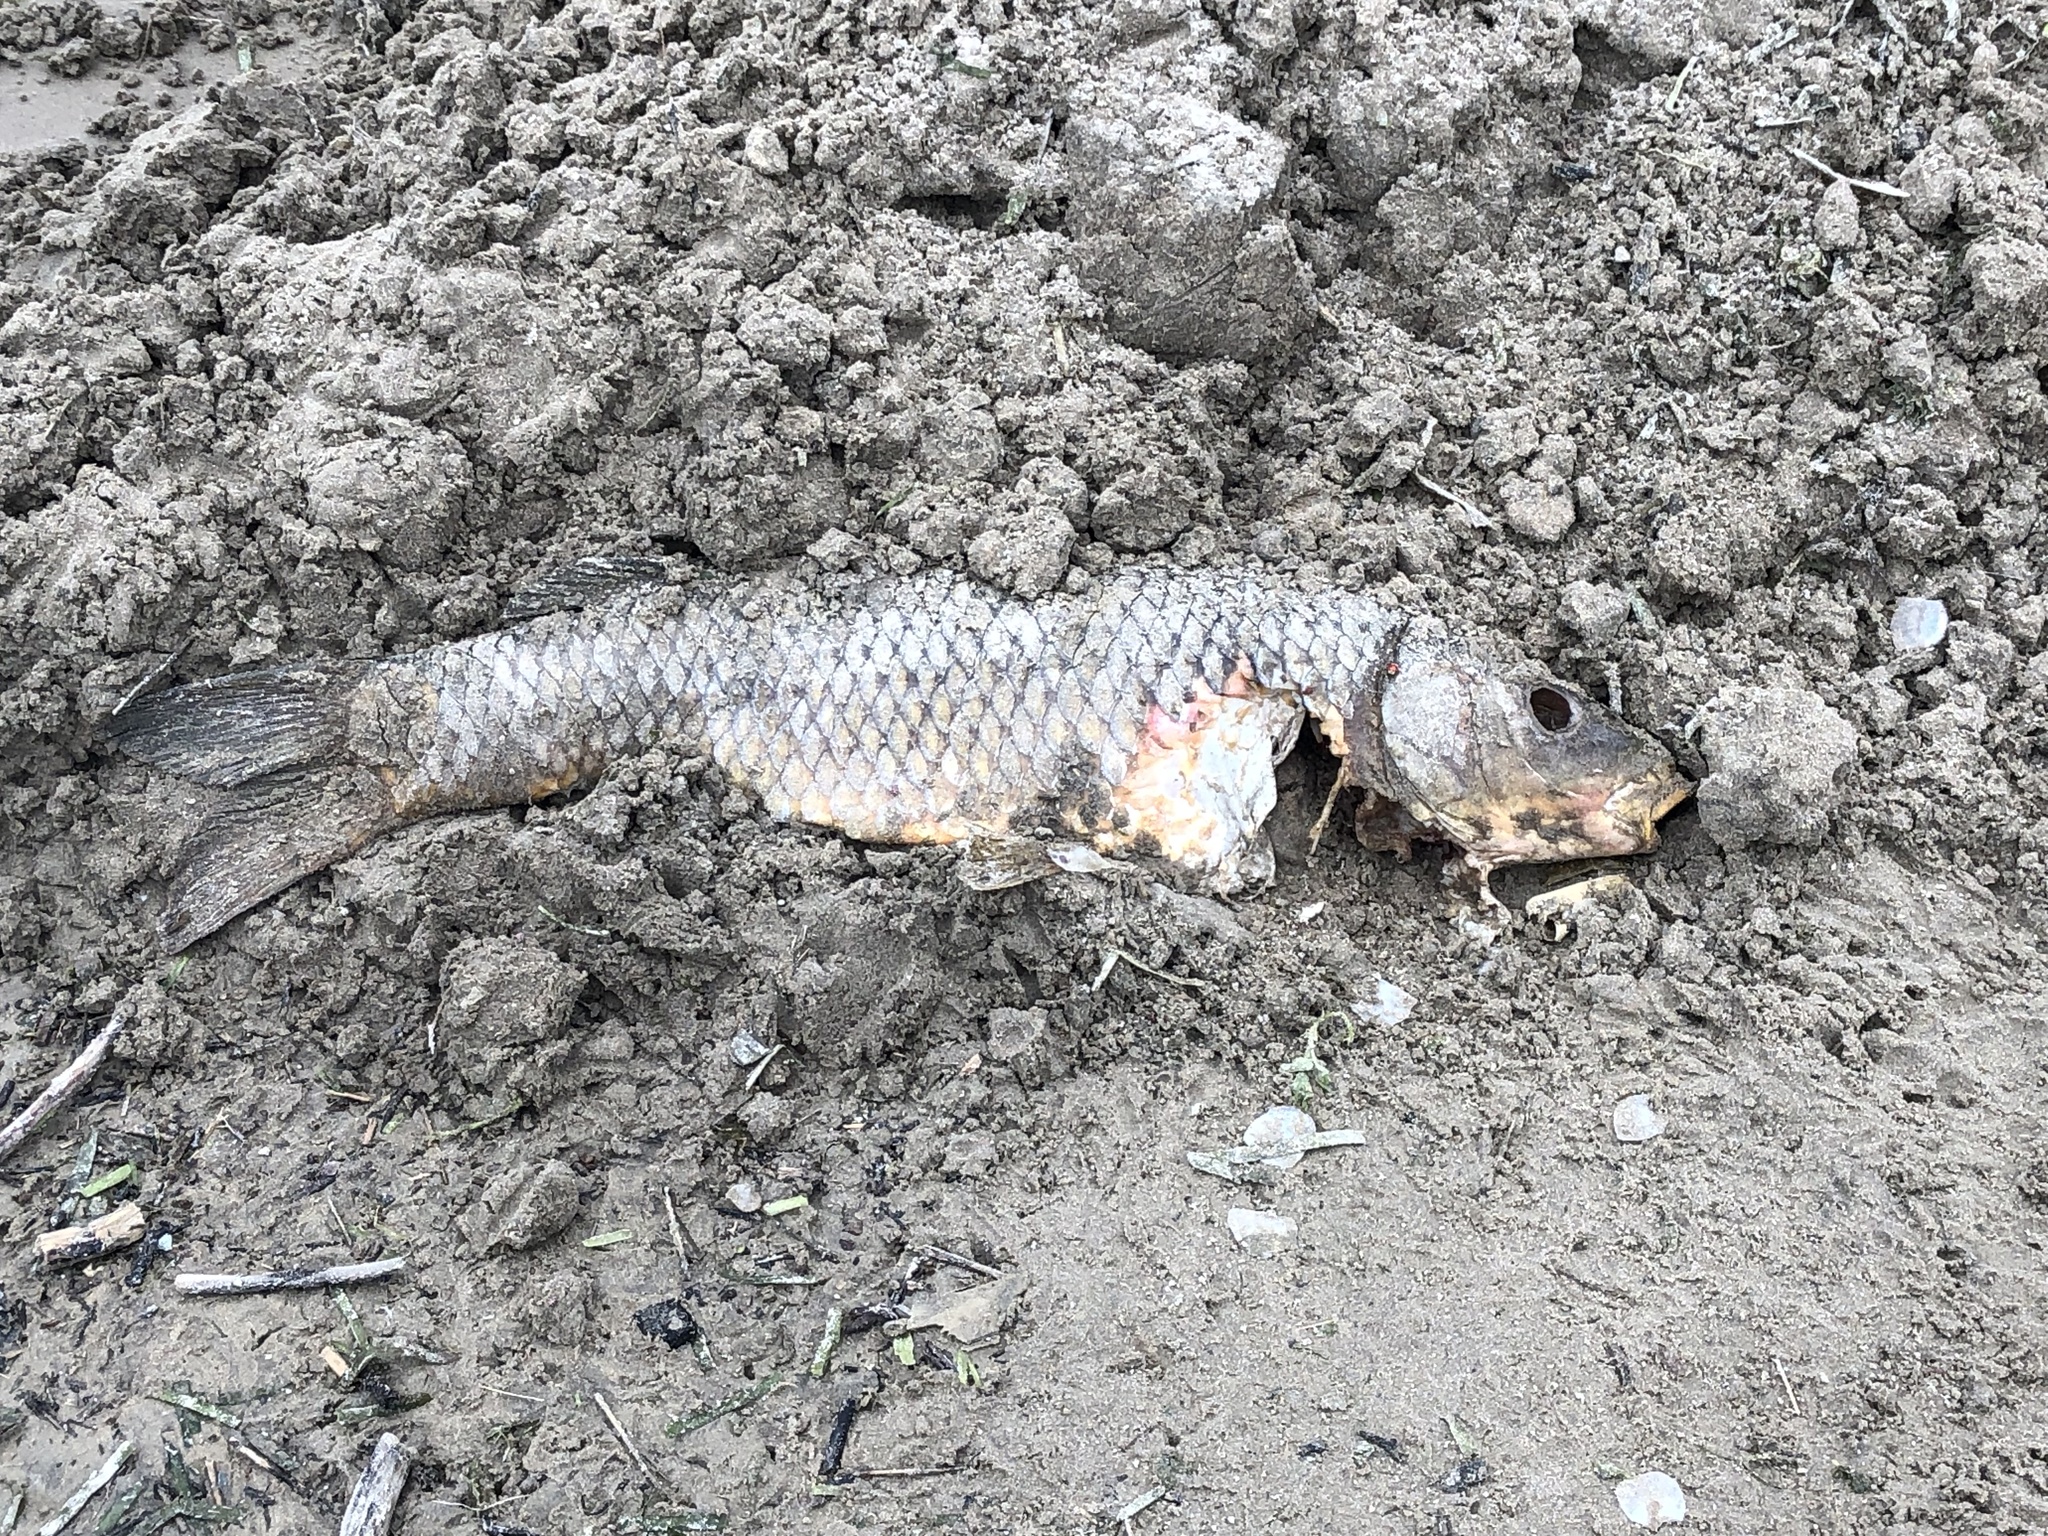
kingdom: Animalia
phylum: Chordata
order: Cypriniformes
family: Cyprinidae
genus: Cyprinus
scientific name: Cyprinus carpio
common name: Common carp
